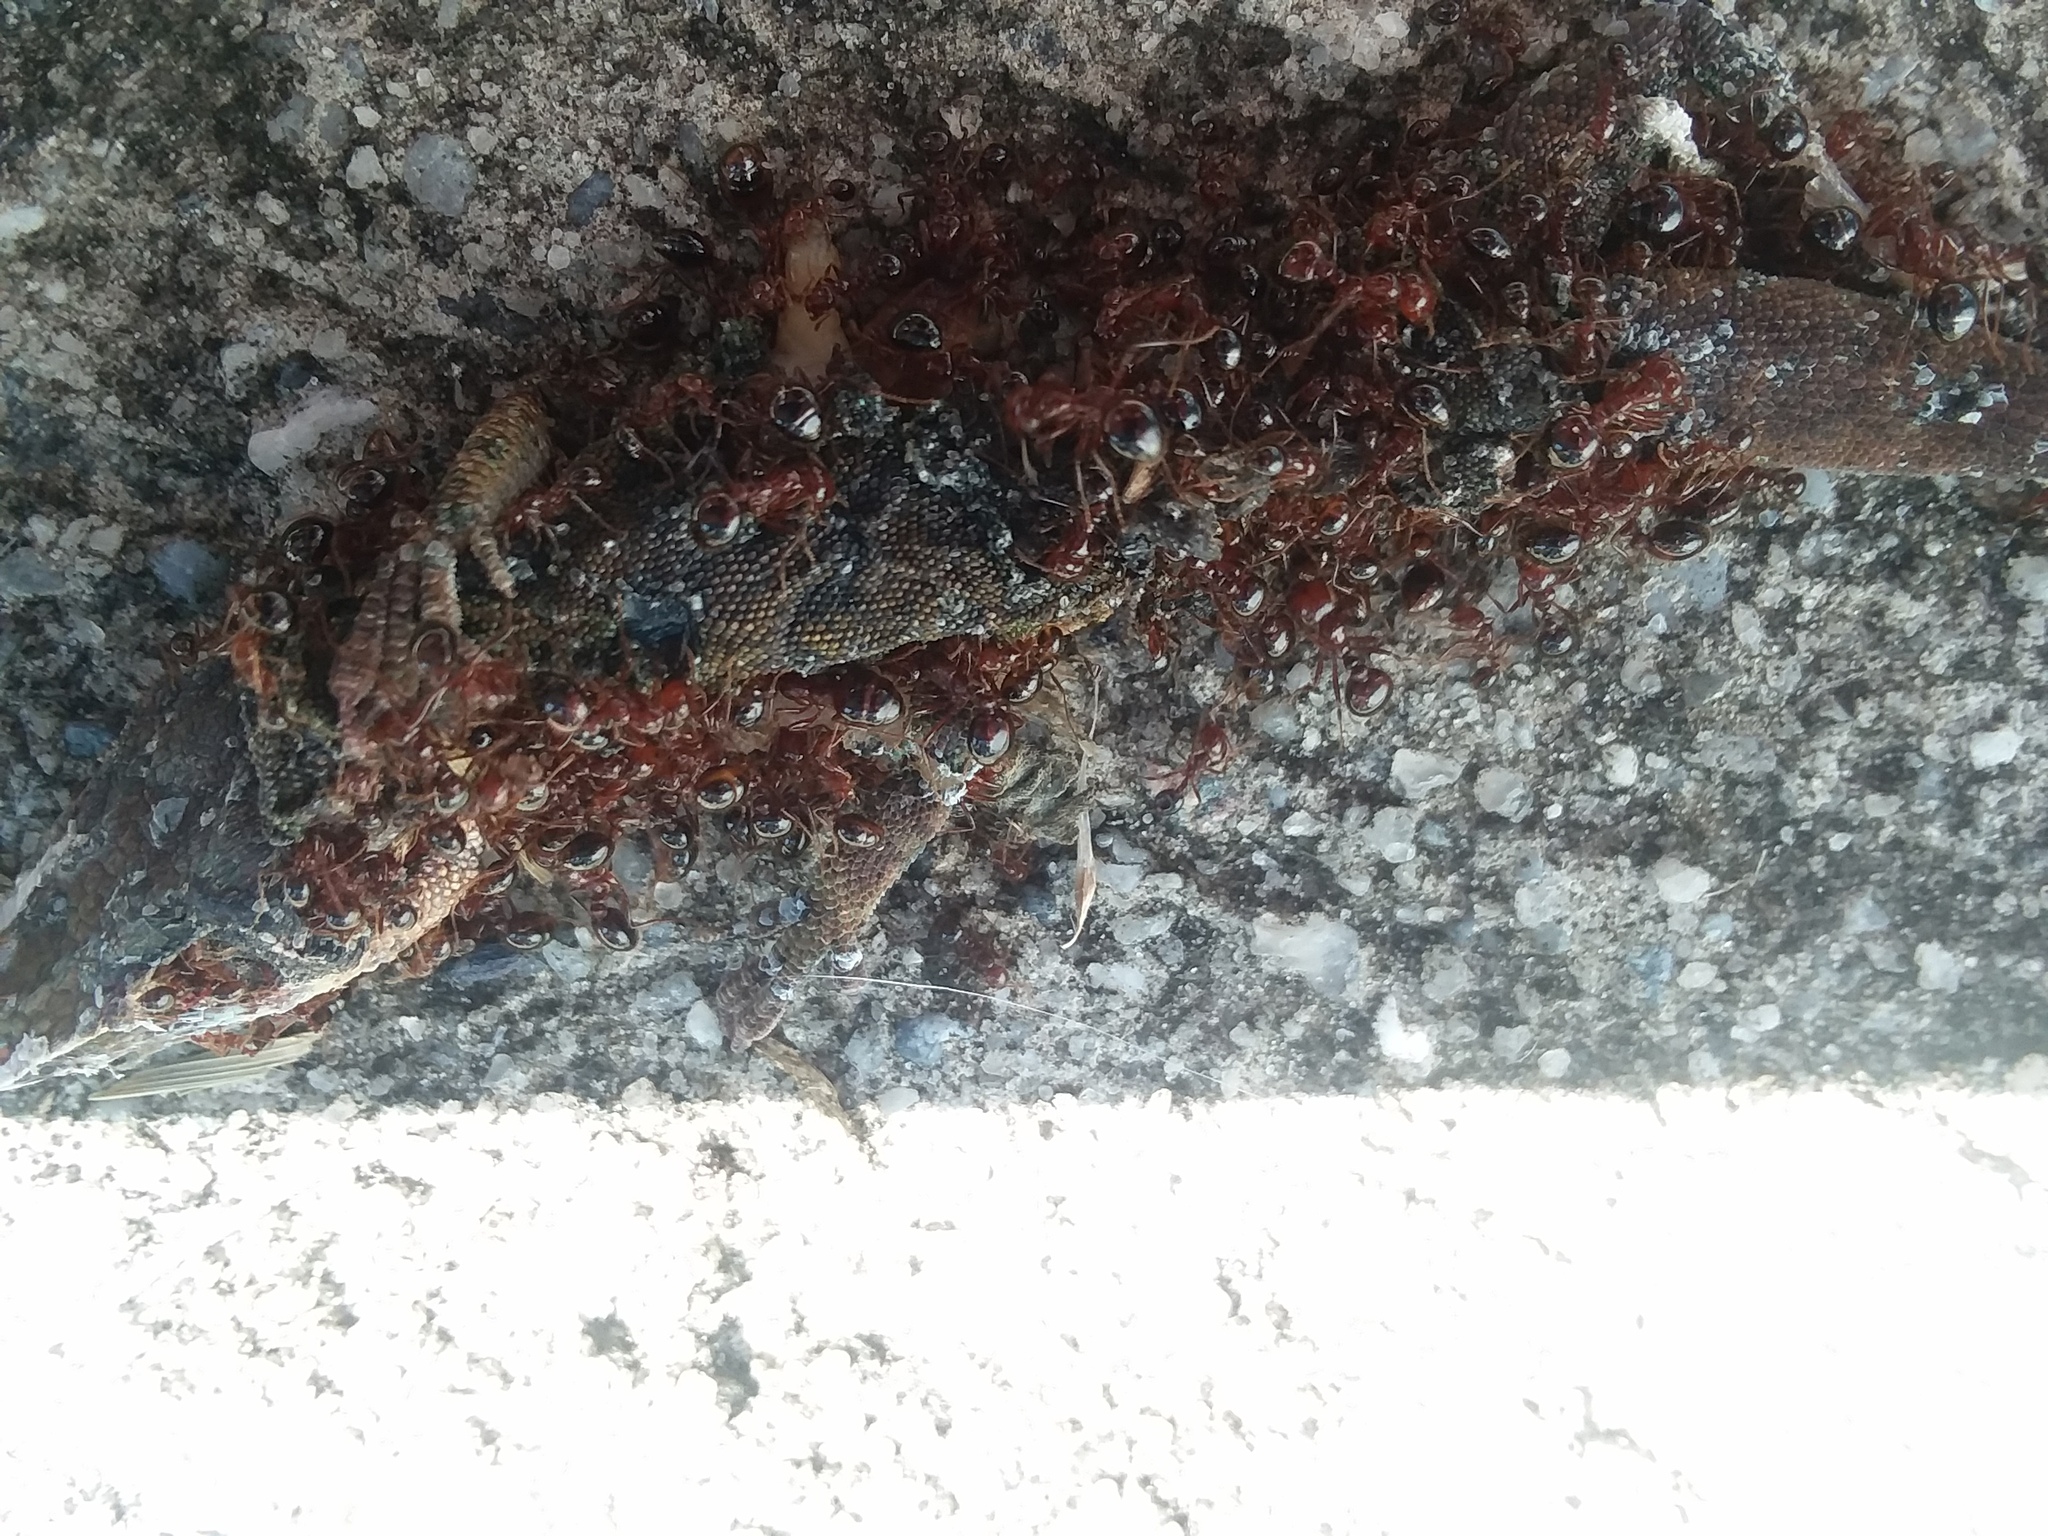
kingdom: Animalia
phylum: Arthropoda
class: Insecta
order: Hymenoptera
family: Formicidae
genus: Solenopsis
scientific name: Solenopsis invicta
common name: Red imported fire ant
